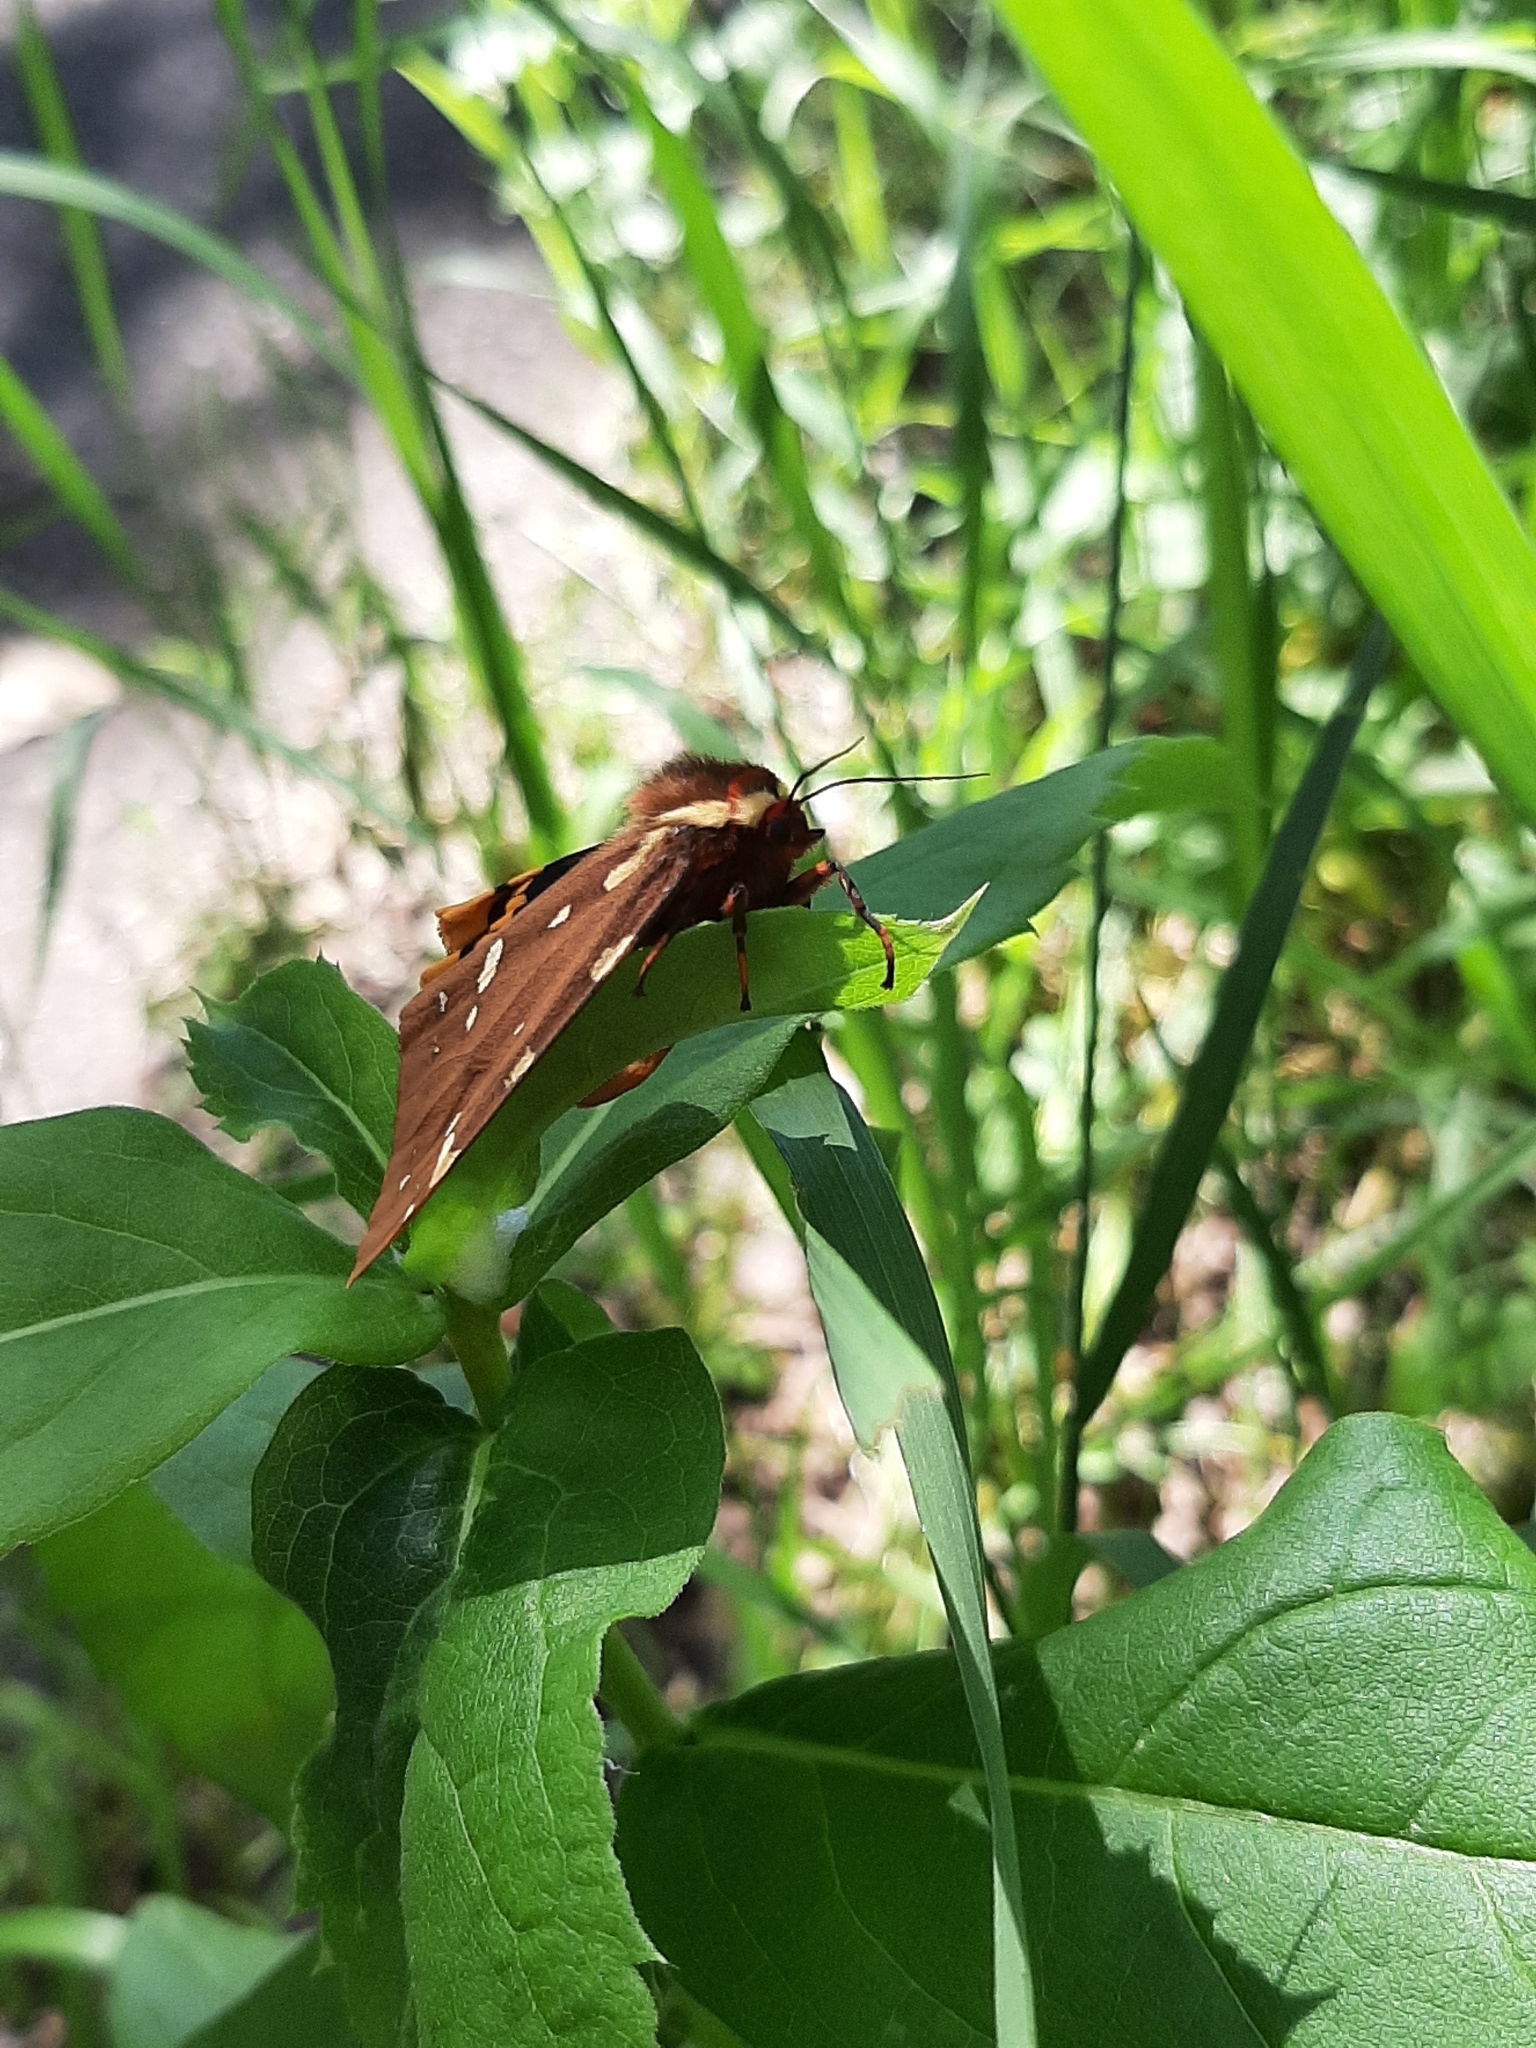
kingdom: Animalia
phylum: Arthropoda
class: Insecta
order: Lepidoptera
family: Erebidae
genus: Arctia
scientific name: Arctia parthenos
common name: St. lawrence tiger moth
